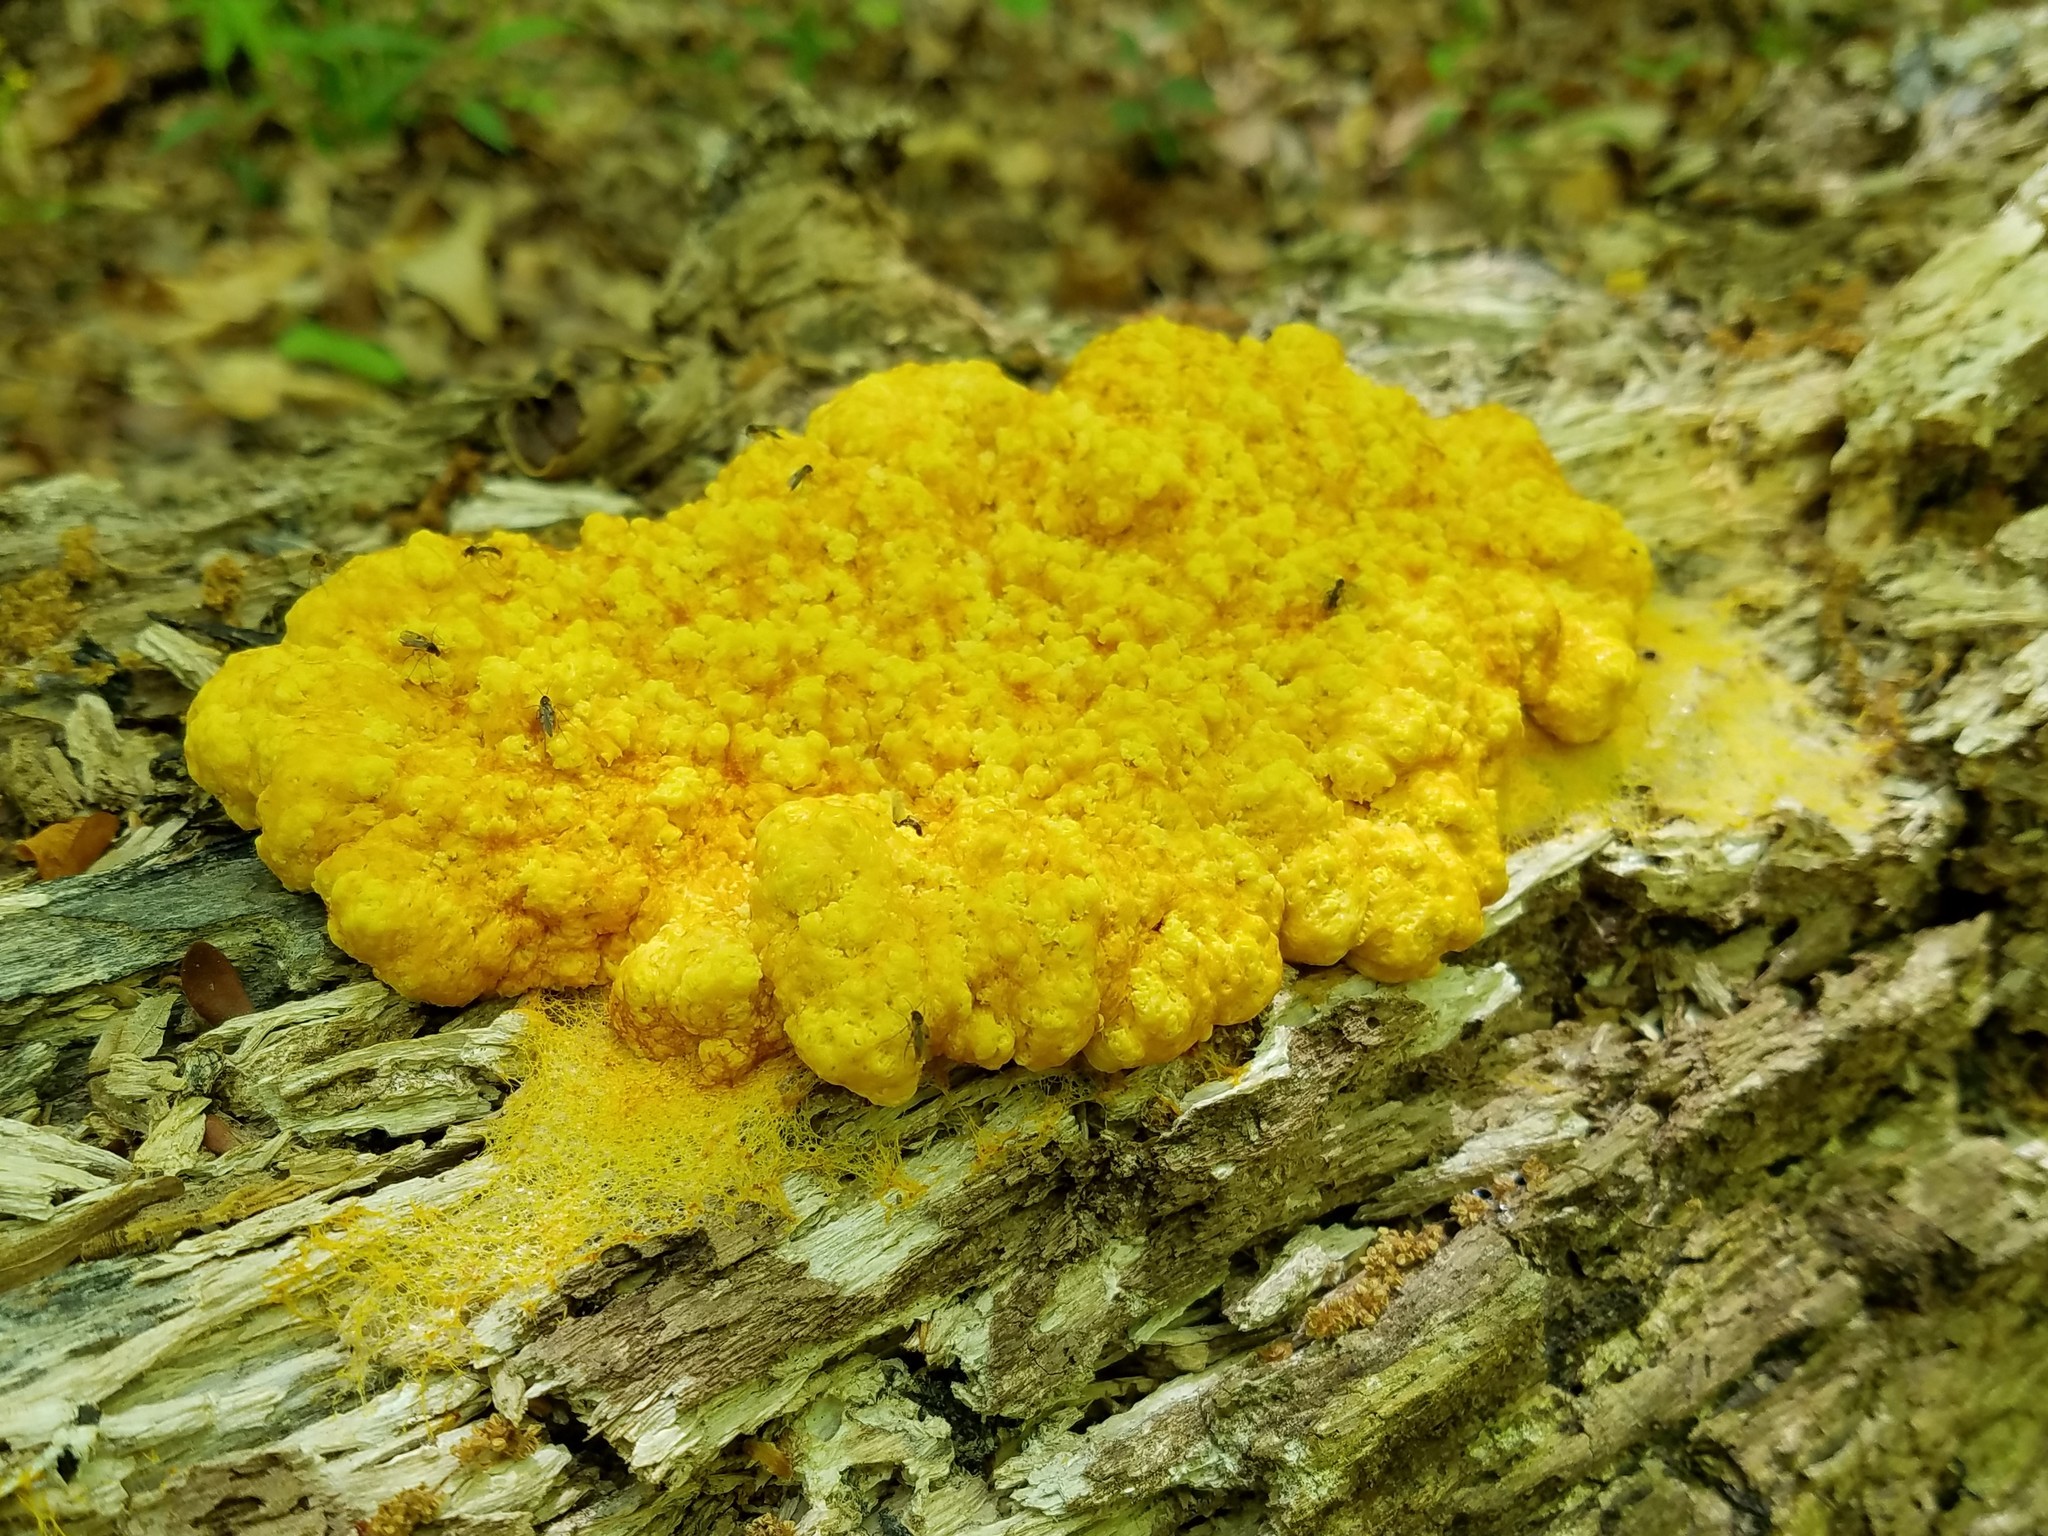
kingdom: Protozoa
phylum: Mycetozoa
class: Myxomycetes
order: Physarales
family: Physaraceae
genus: Fuligo
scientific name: Fuligo septica
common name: Dog vomit slime mold
